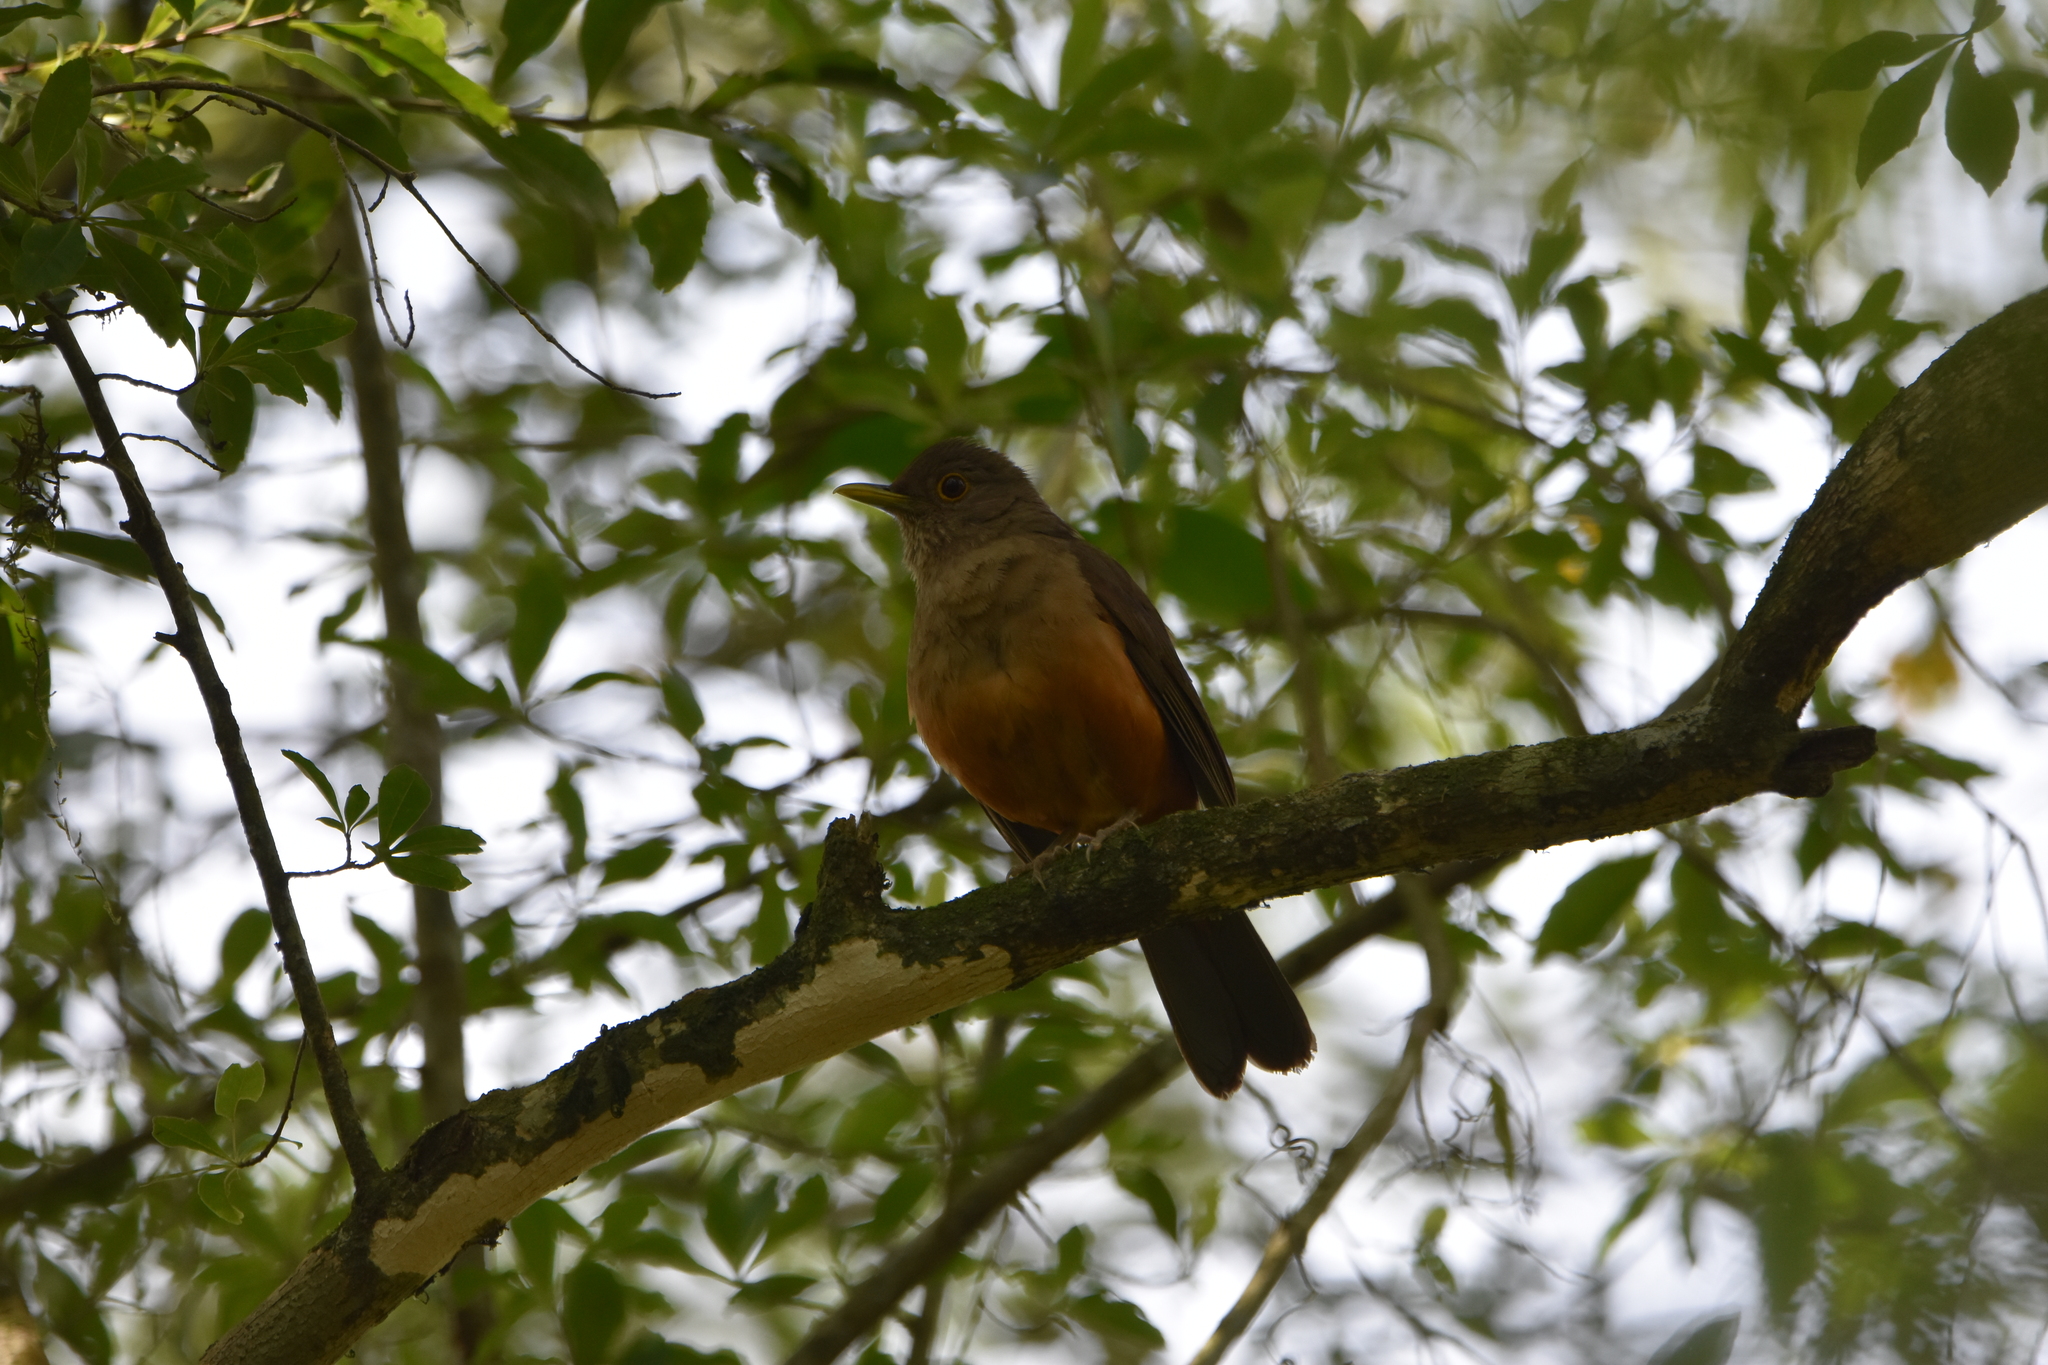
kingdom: Animalia
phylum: Chordata
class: Aves
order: Passeriformes
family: Turdidae
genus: Turdus
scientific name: Turdus rufiventris
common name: Rufous-bellied thrush
